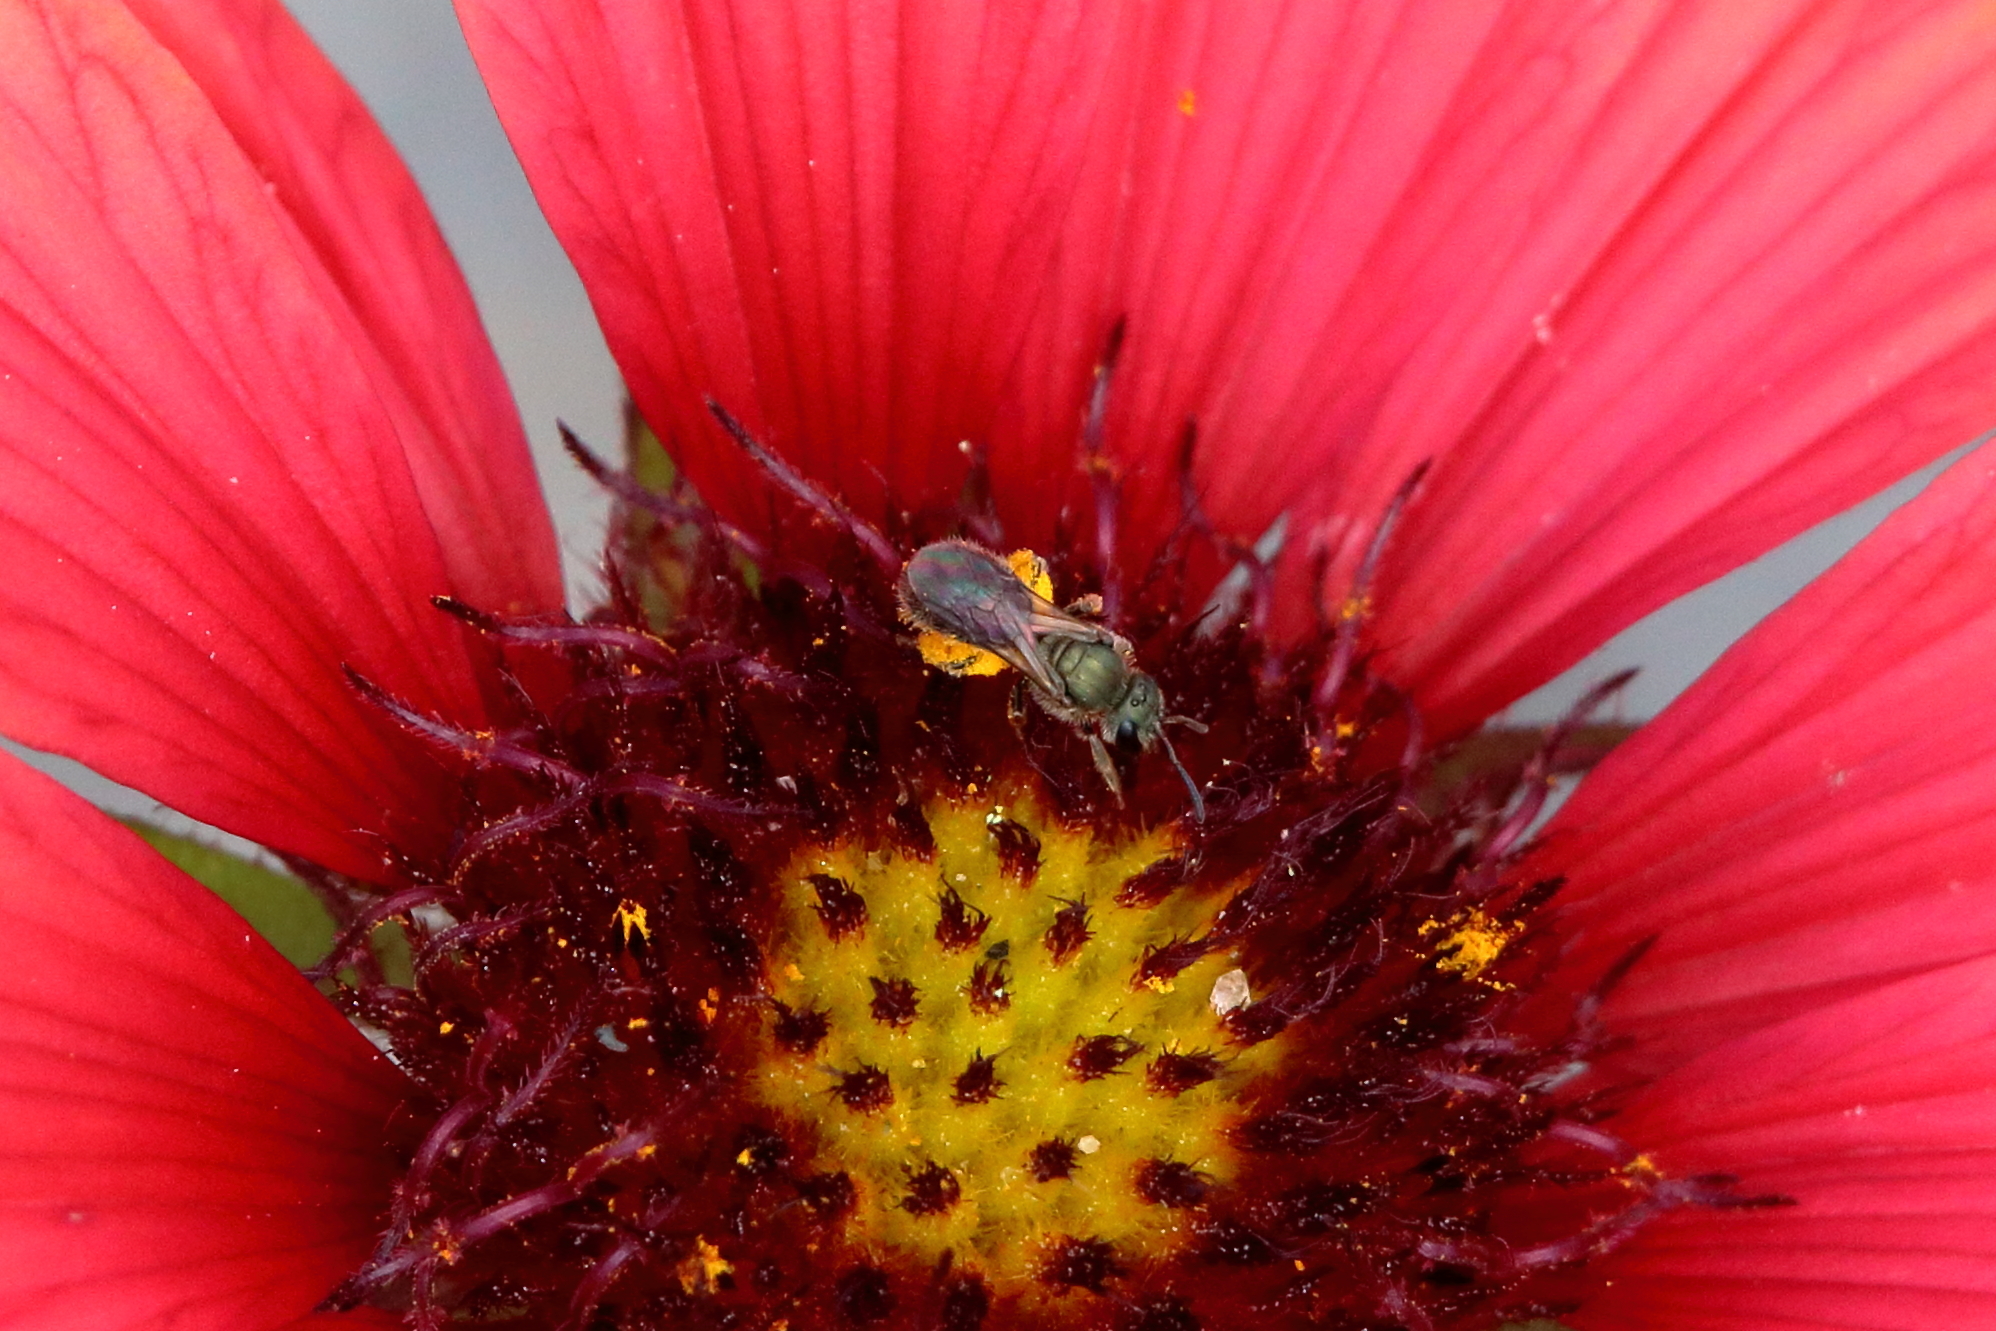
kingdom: Animalia
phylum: Arthropoda
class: Insecta
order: Hymenoptera
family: Halictidae
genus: Dialictus
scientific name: Dialictus
